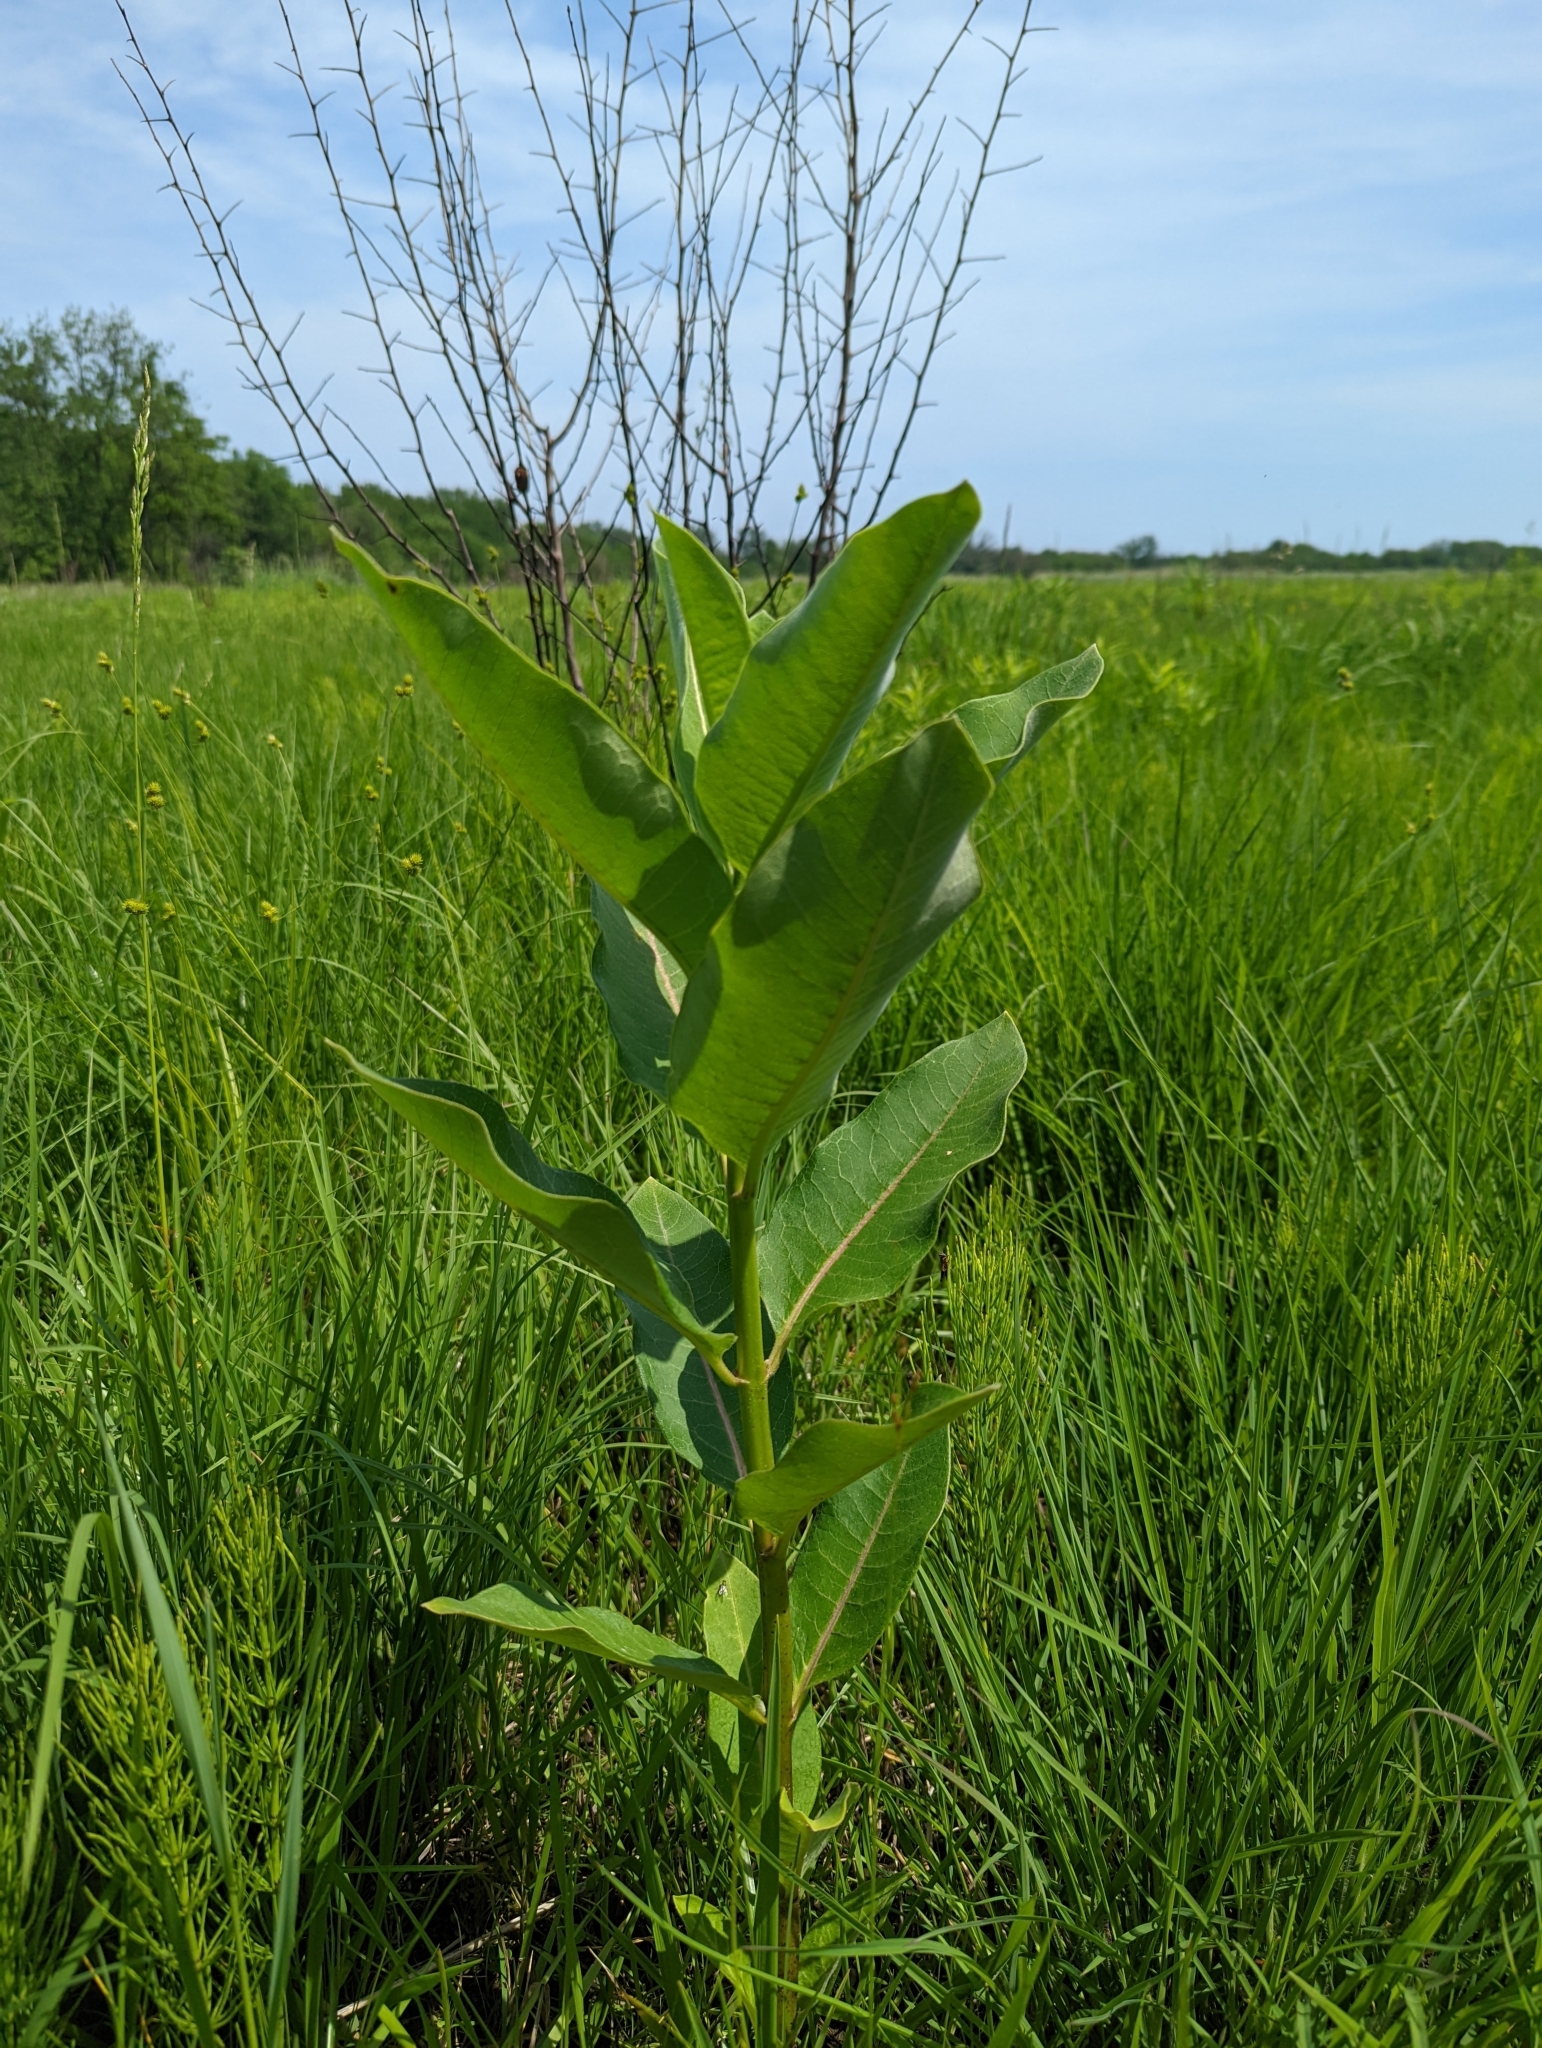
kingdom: Plantae
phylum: Tracheophyta
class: Magnoliopsida
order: Gentianales
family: Apocynaceae
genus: Asclepias
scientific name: Asclepias syriaca
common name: Common milkweed
